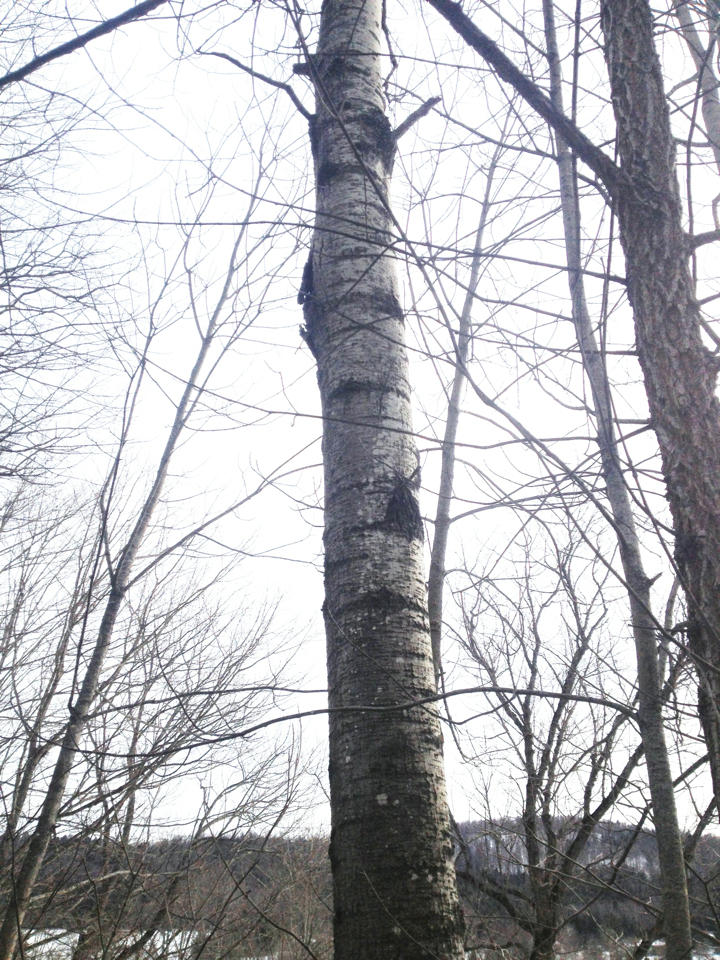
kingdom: Plantae
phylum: Tracheophyta
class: Magnoliopsida
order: Malpighiales
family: Salicaceae
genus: Populus
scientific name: Populus tremuloides
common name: Quaking aspen
